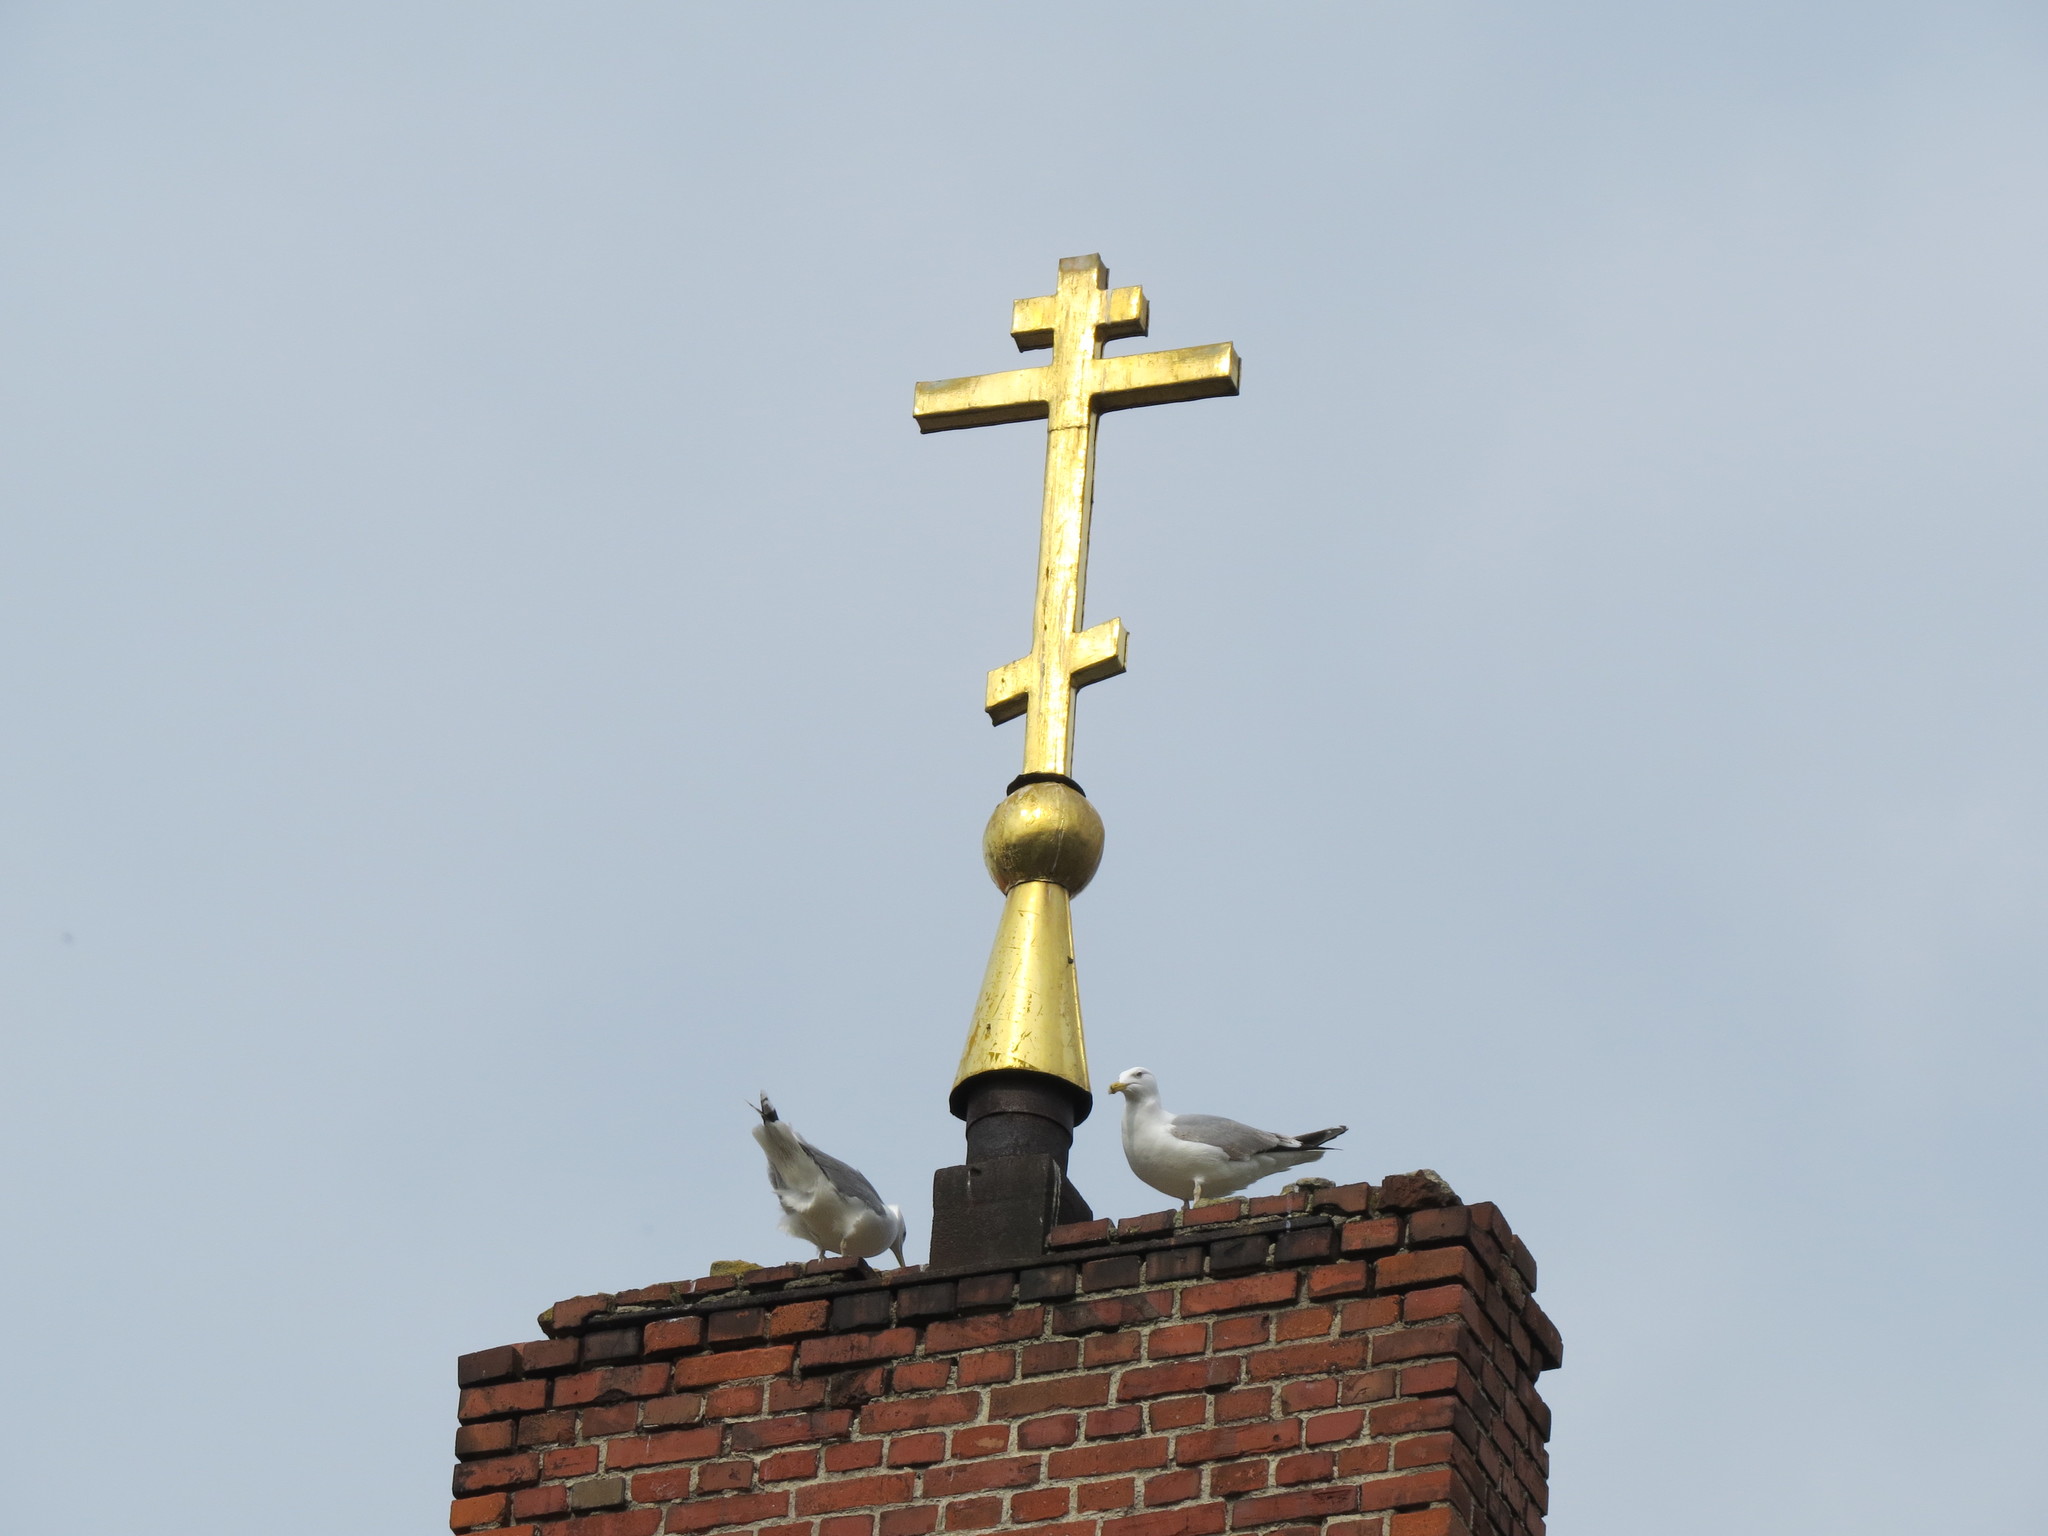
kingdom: Animalia
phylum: Chordata
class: Aves
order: Charadriiformes
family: Laridae
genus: Larus
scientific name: Larus argentatus
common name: Herring gull
